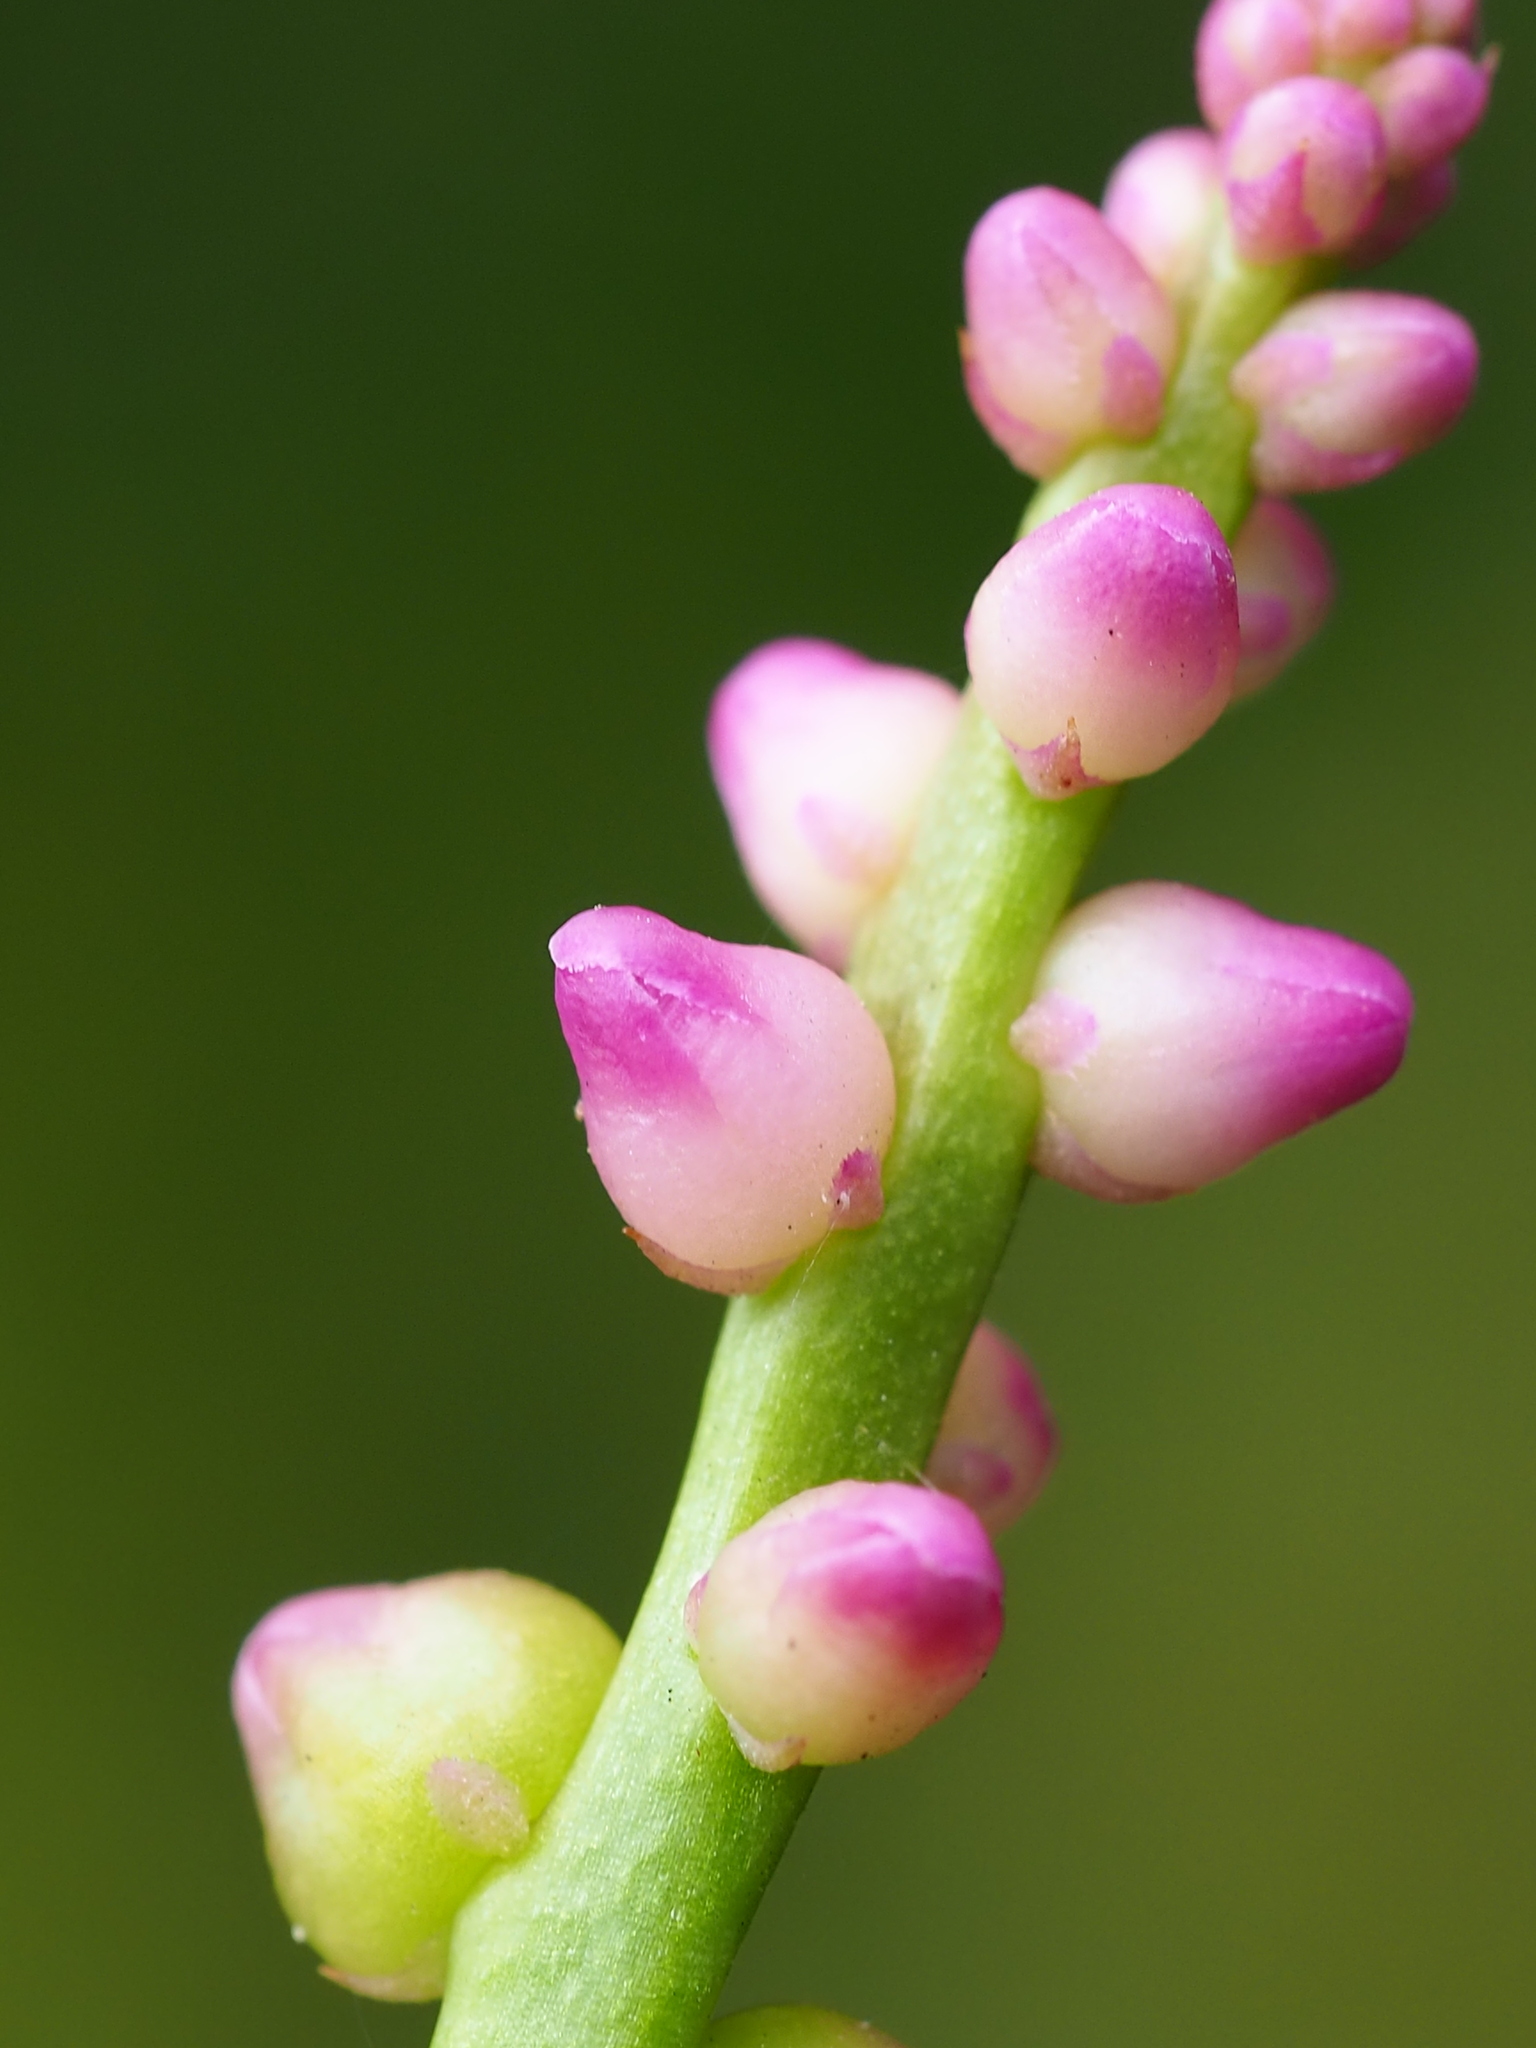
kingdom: Plantae
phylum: Tracheophyta
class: Magnoliopsida
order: Caryophyllales
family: Basellaceae
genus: Basella
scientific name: Basella alba
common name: Indian spinach
